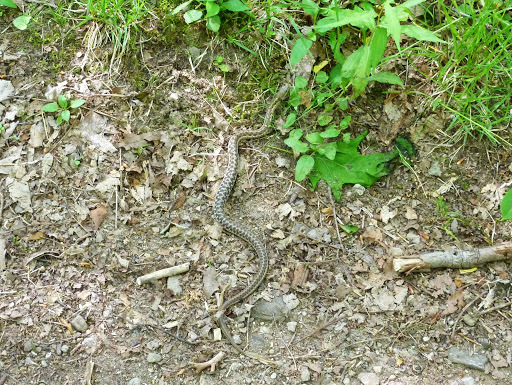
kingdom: Animalia
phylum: Chordata
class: Squamata
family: Colubridae
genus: Thamnophis
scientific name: Thamnophis sirtalis
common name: Common garter snake
